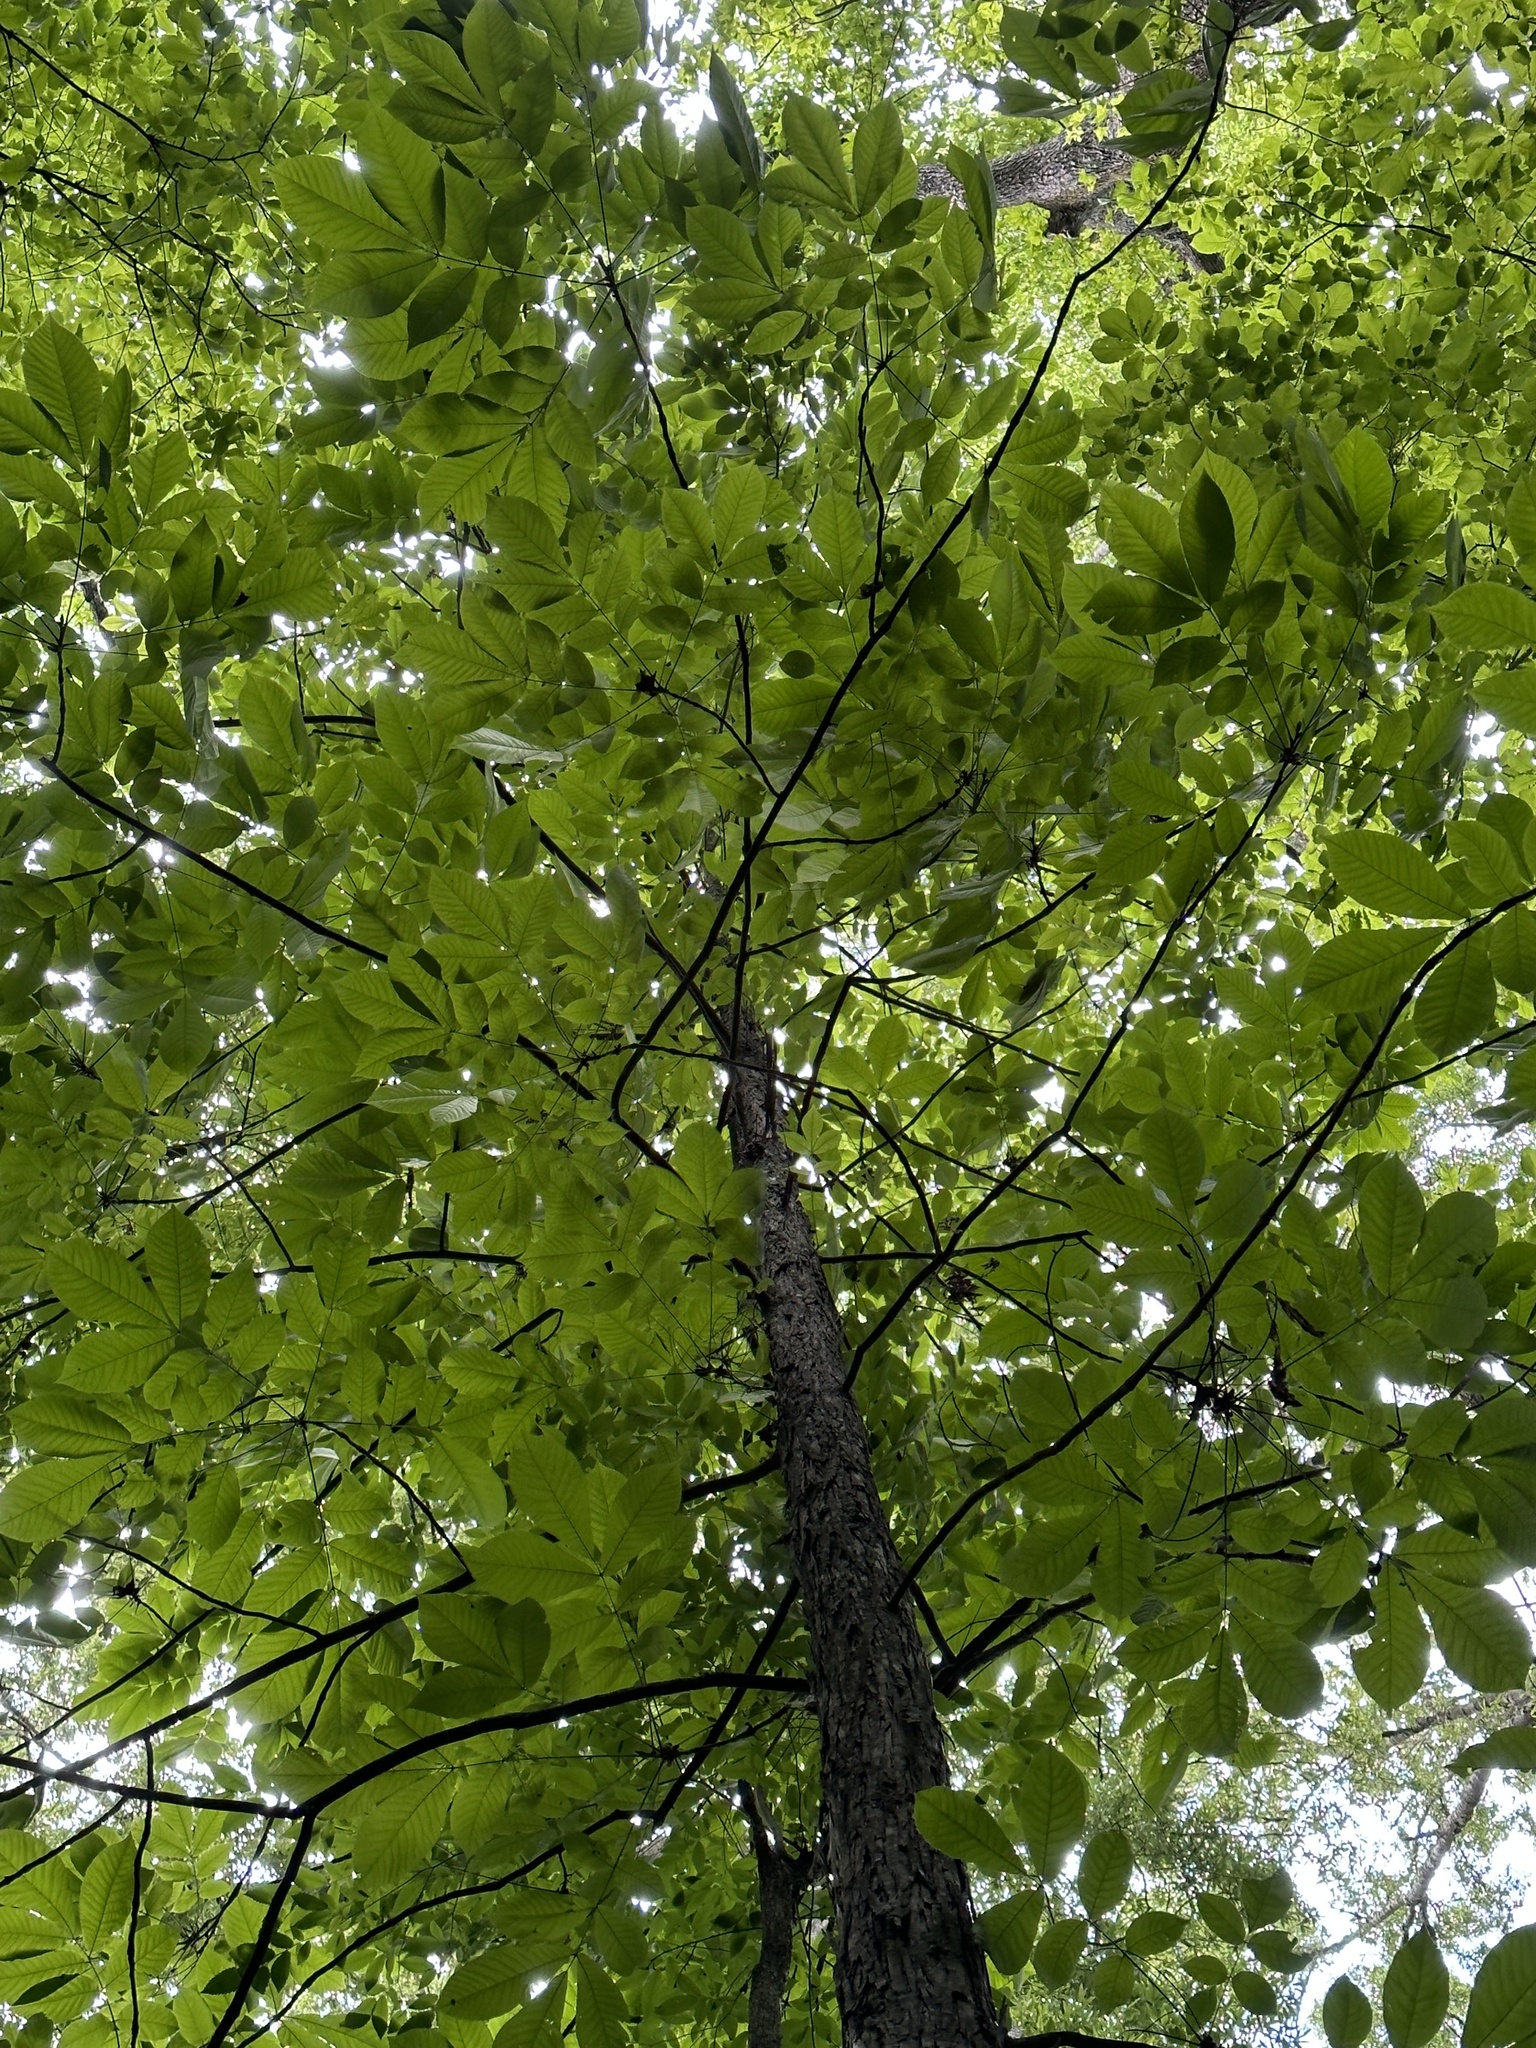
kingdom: Plantae
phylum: Tracheophyta
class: Magnoliopsida
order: Fagales
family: Juglandaceae
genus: Carya
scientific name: Carya laciniosa
